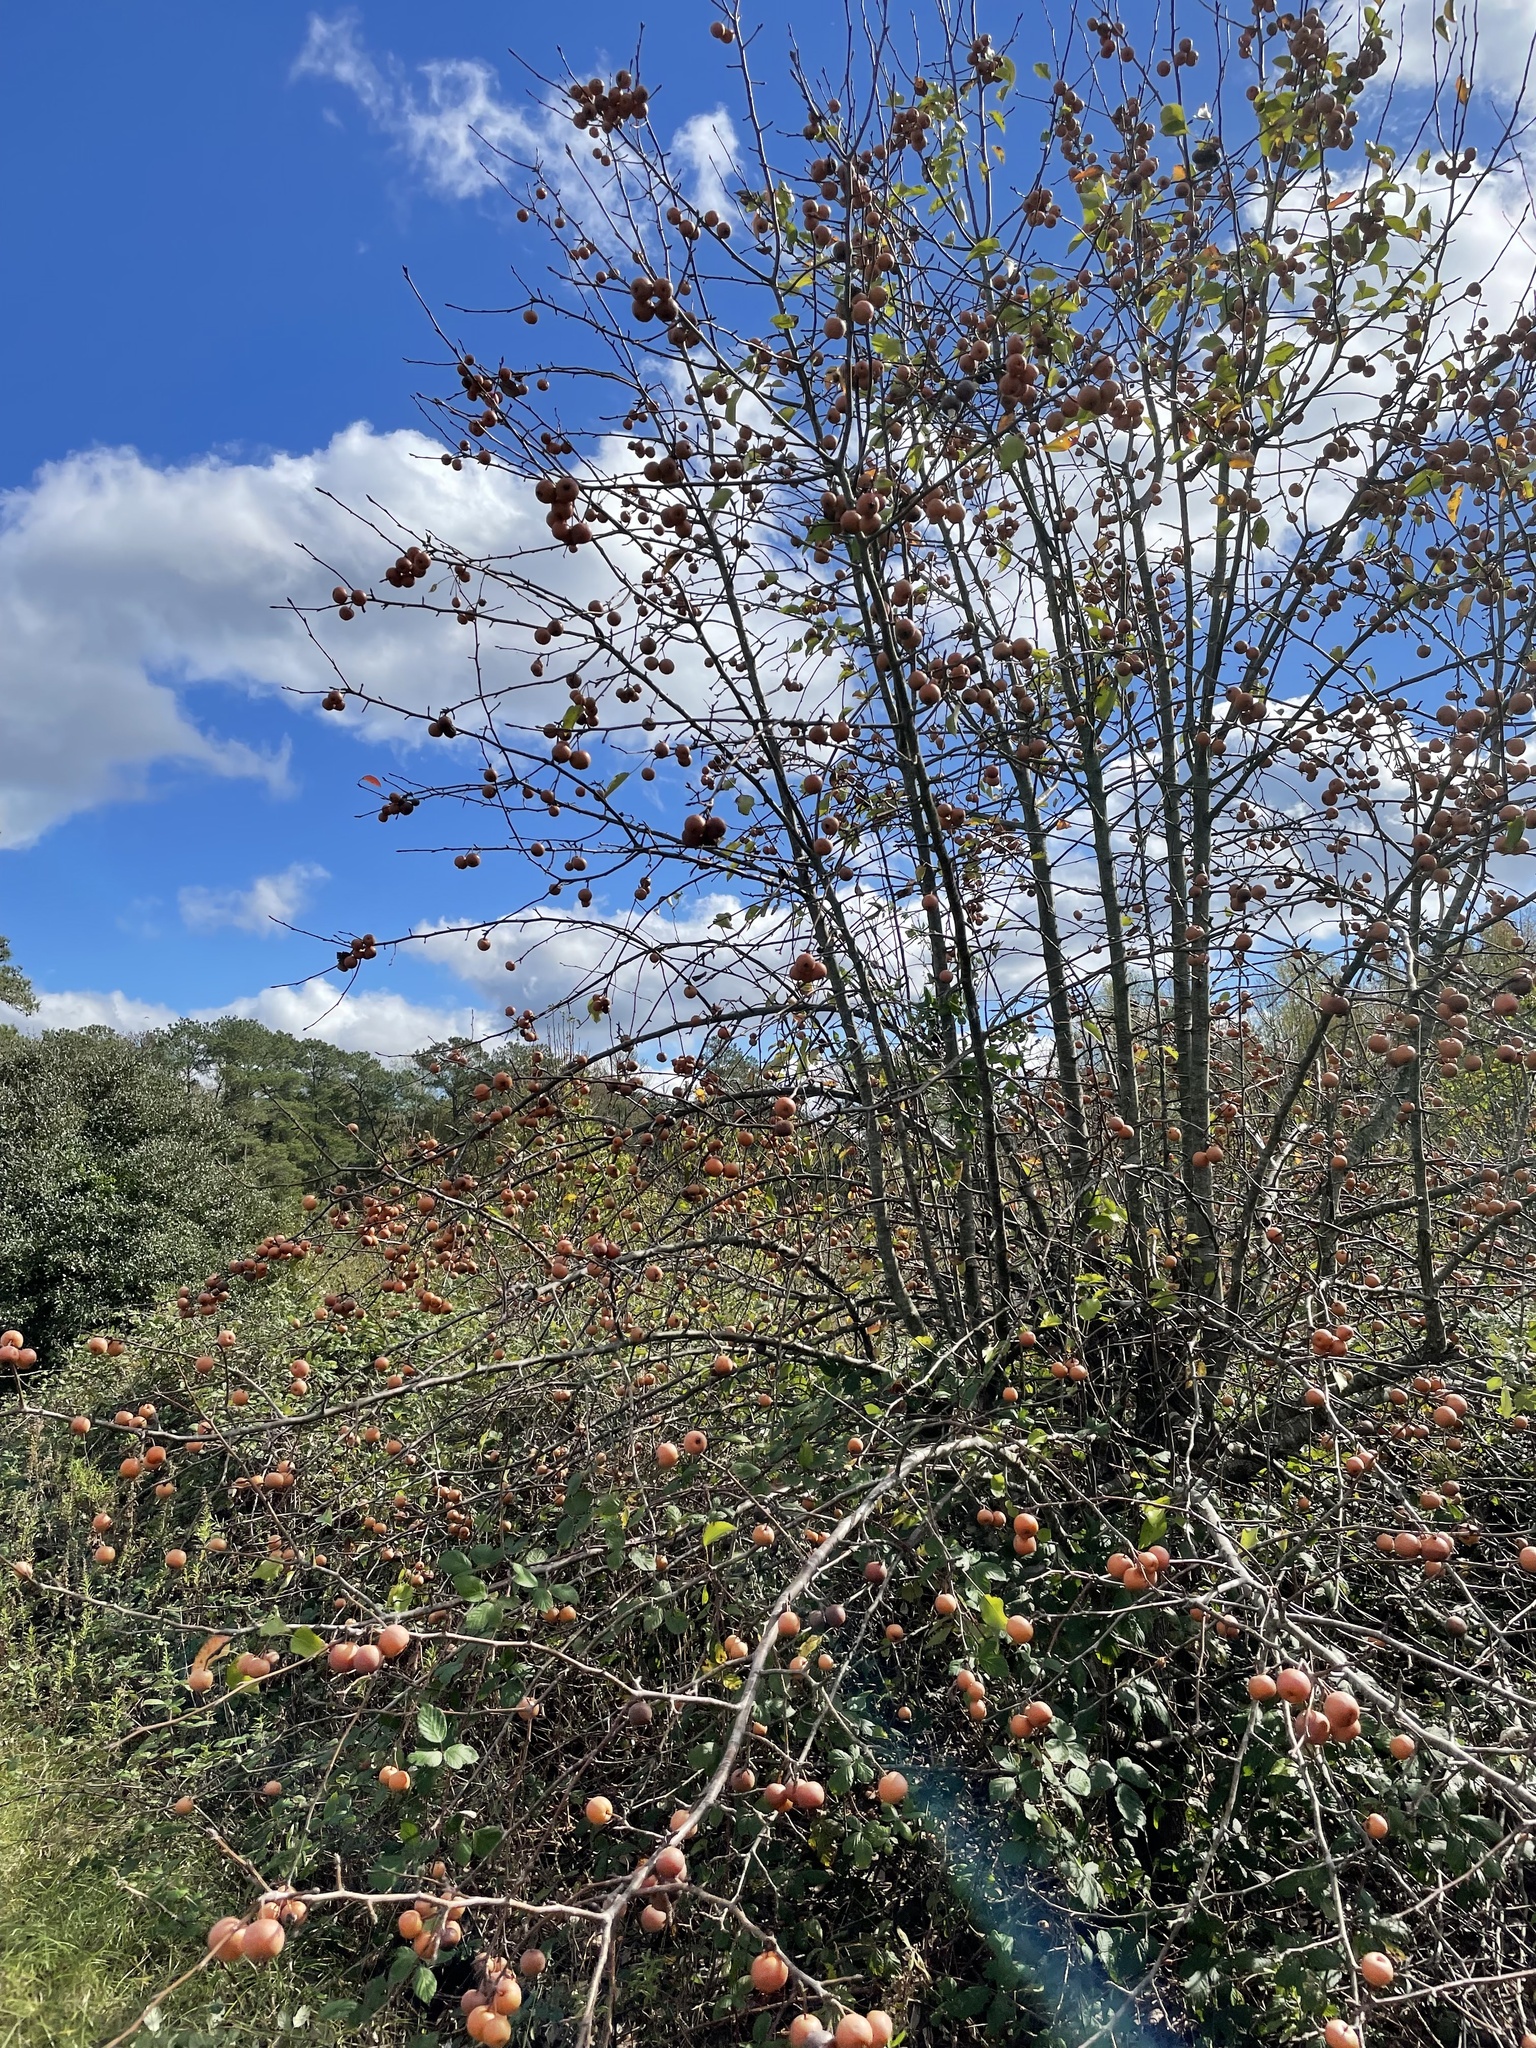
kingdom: Plantae
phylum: Tracheophyta
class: Magnoliopsida
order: Rosales
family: Rosaceae
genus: Pyrus
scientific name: Pyrus calleryana
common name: Callery pear
